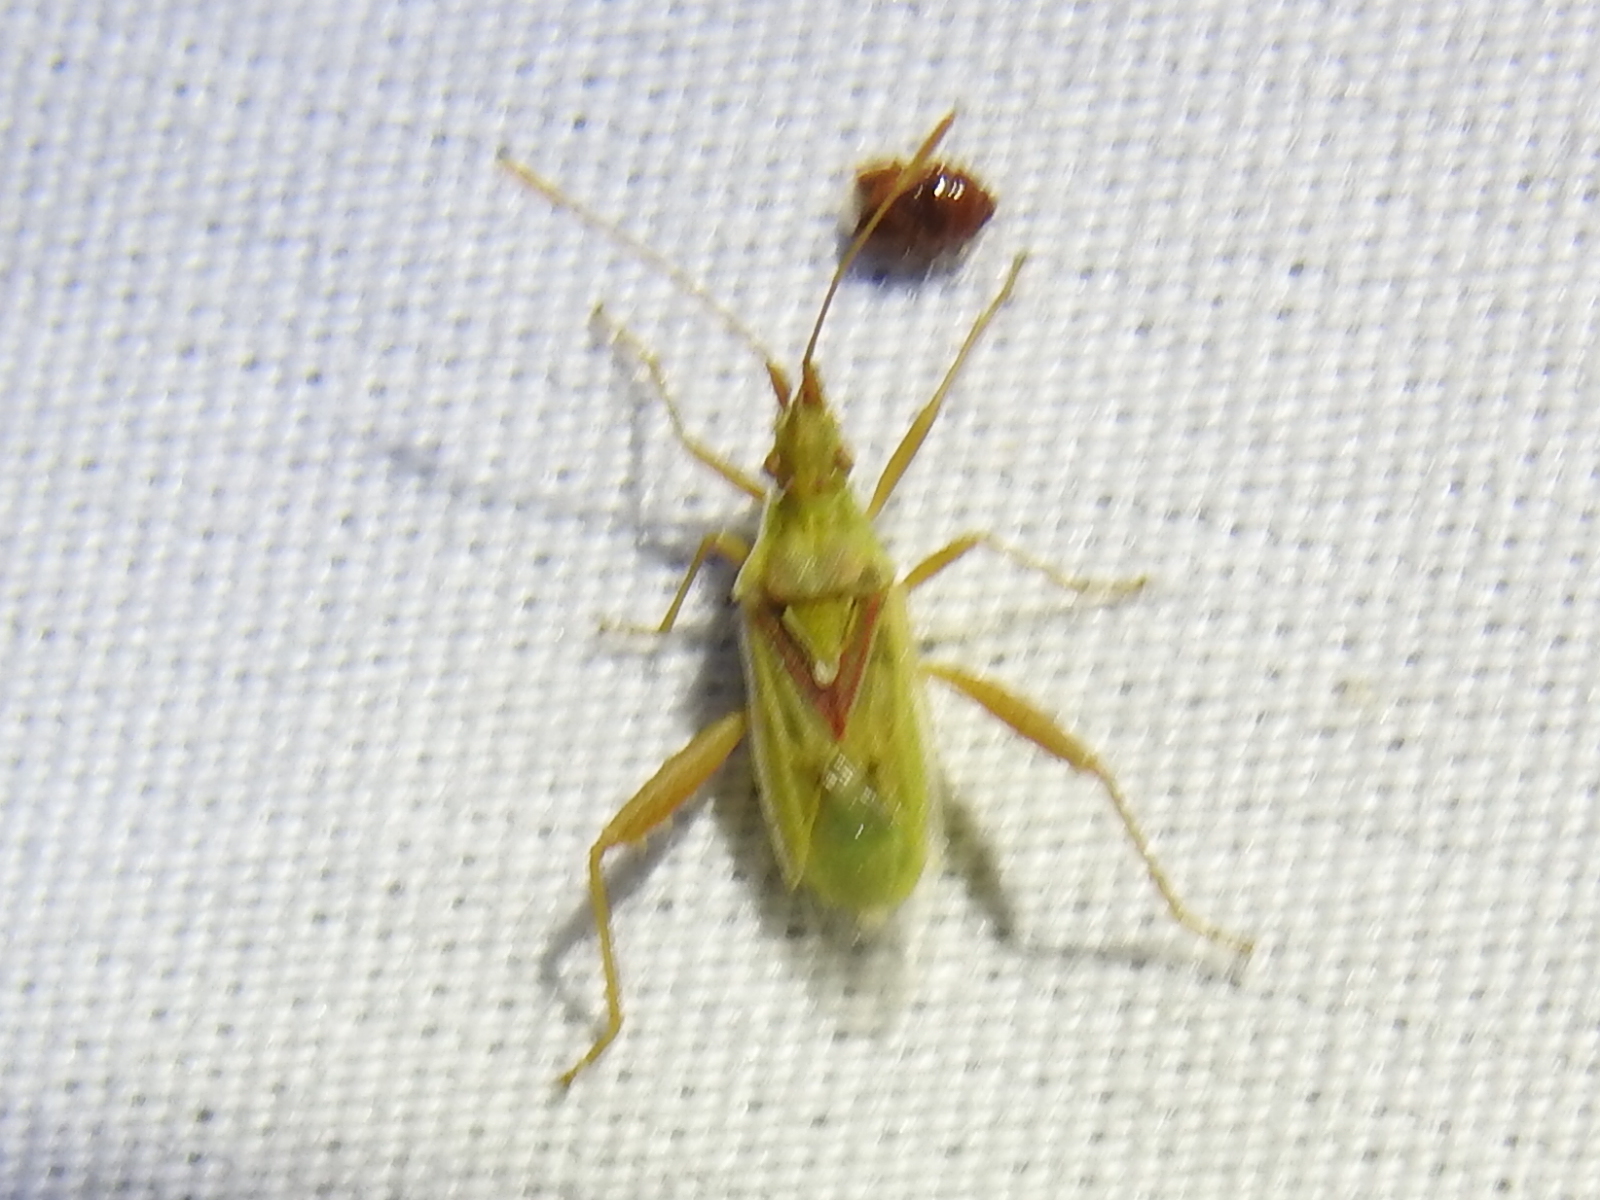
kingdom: Animalia
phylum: Arthropoda
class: Insecta
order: Hemiptera
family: Rhopalidae
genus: Harmostes
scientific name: Harmostes reflexulus
